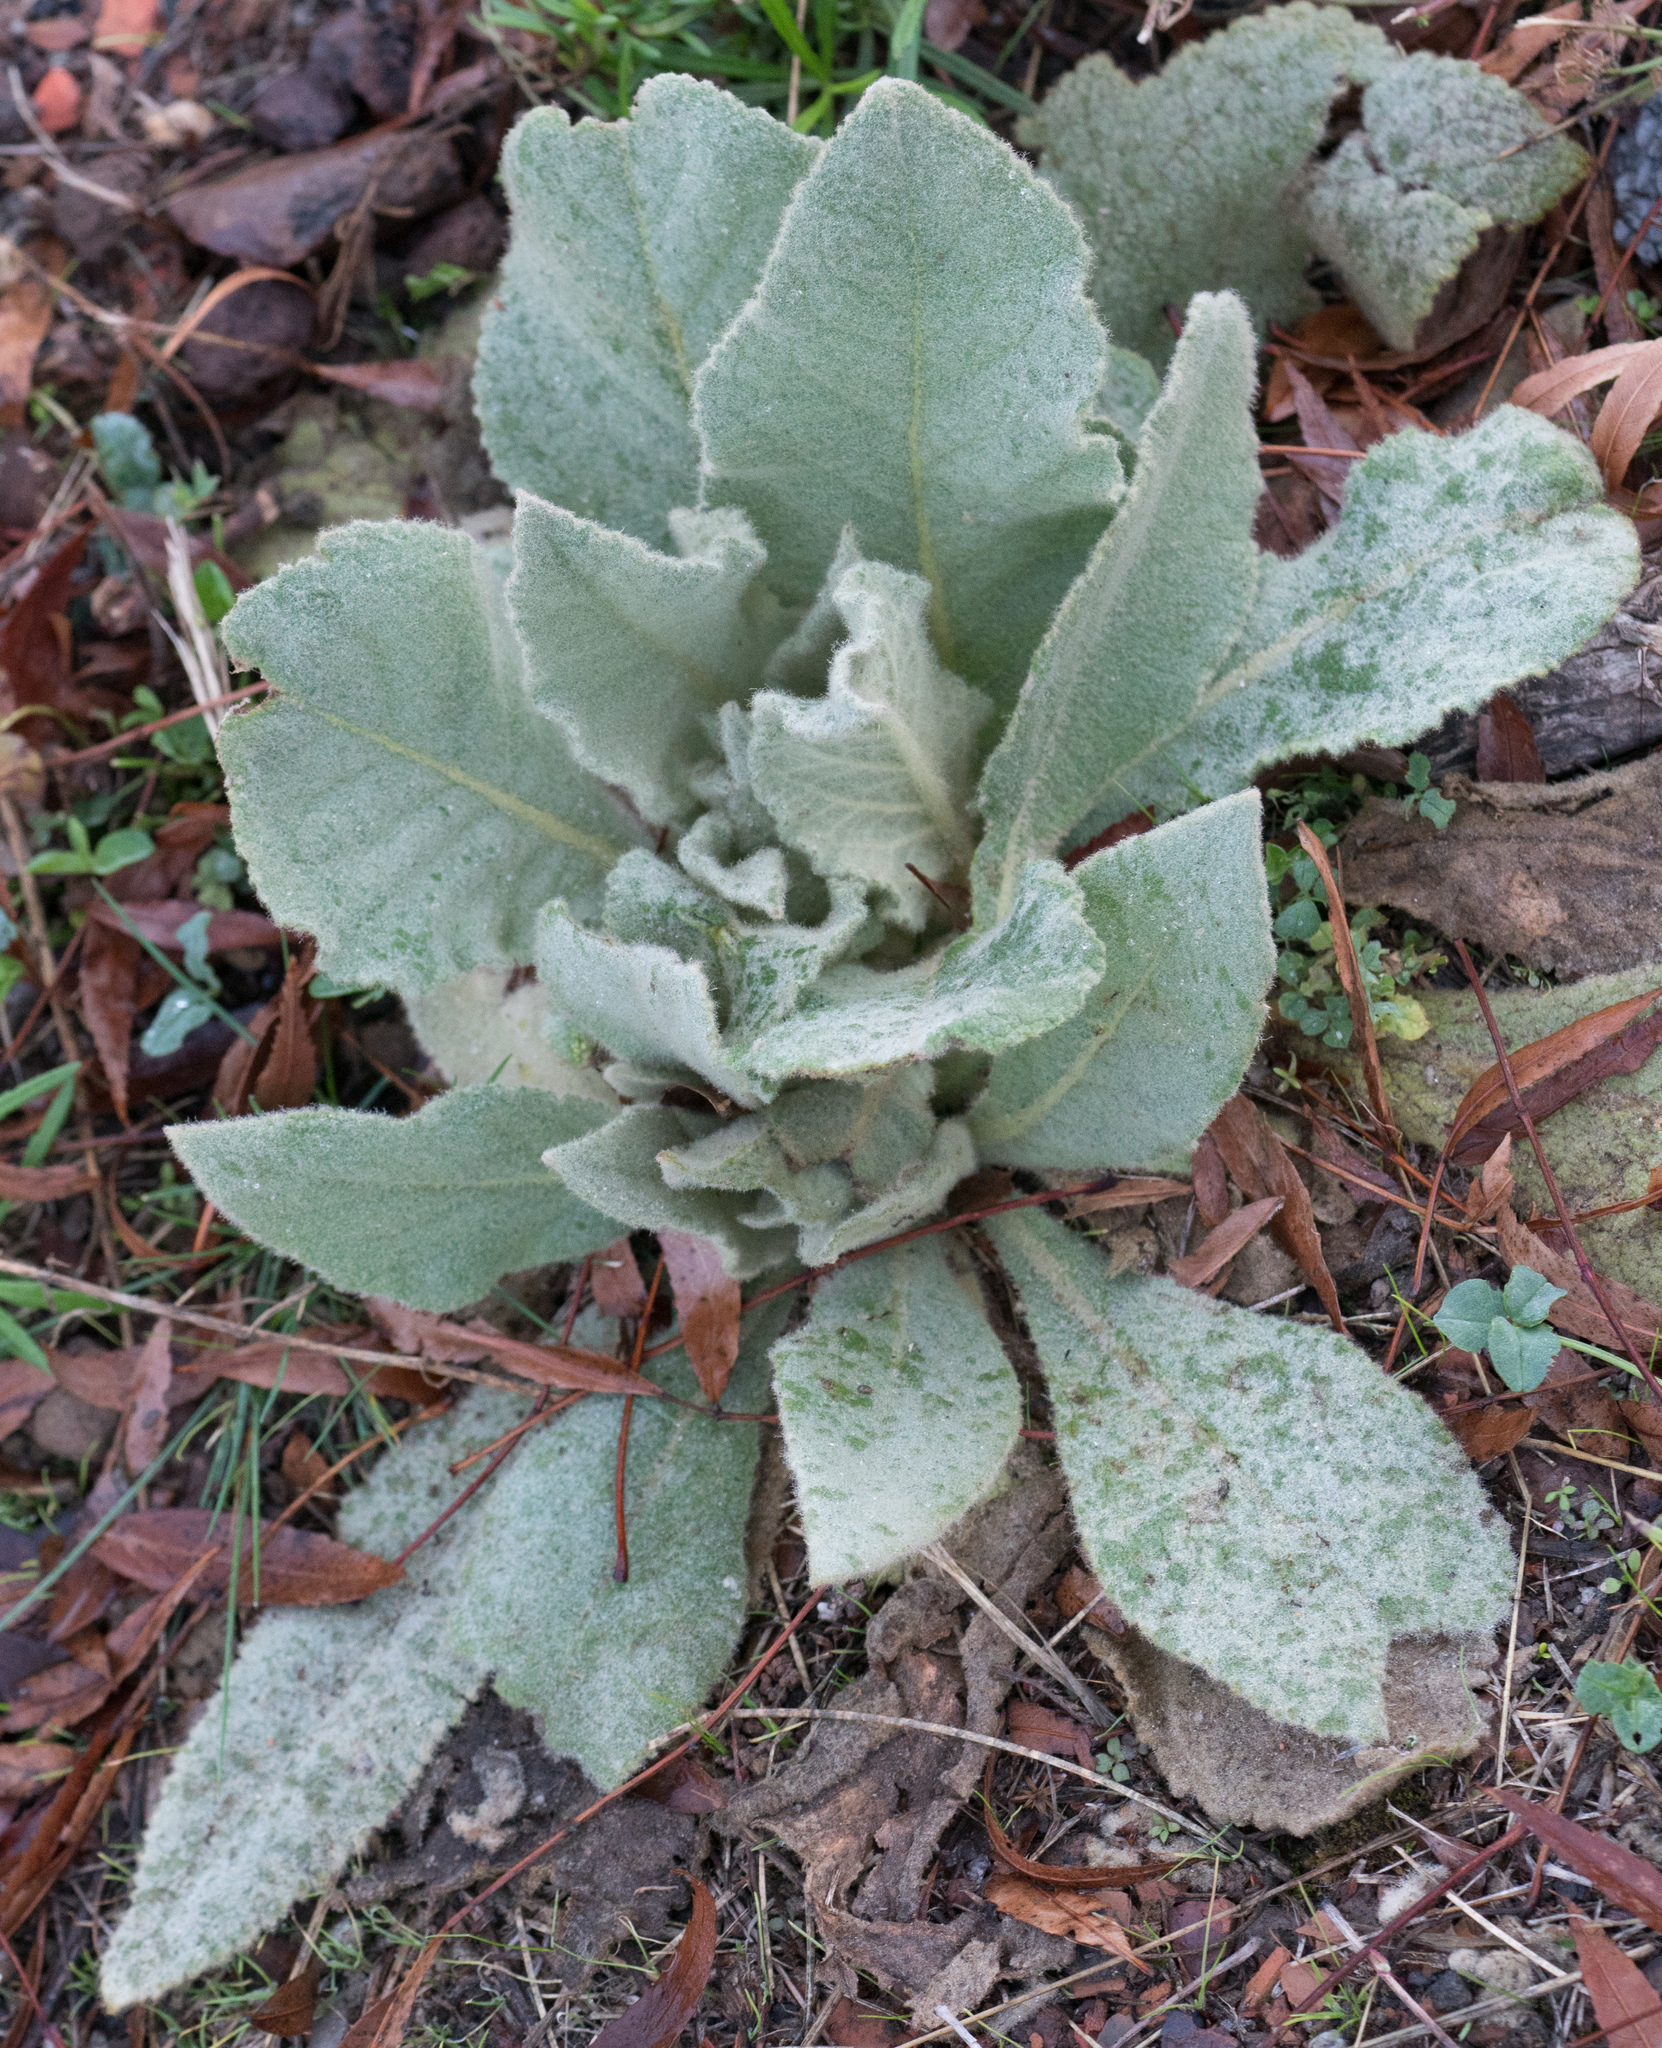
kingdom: Plantae
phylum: Tracheophyta
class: Magnoliopsida
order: Lamiales
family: Scrophulariaceae
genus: Verbascum
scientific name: Verbascum thapsus
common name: Common mullein
